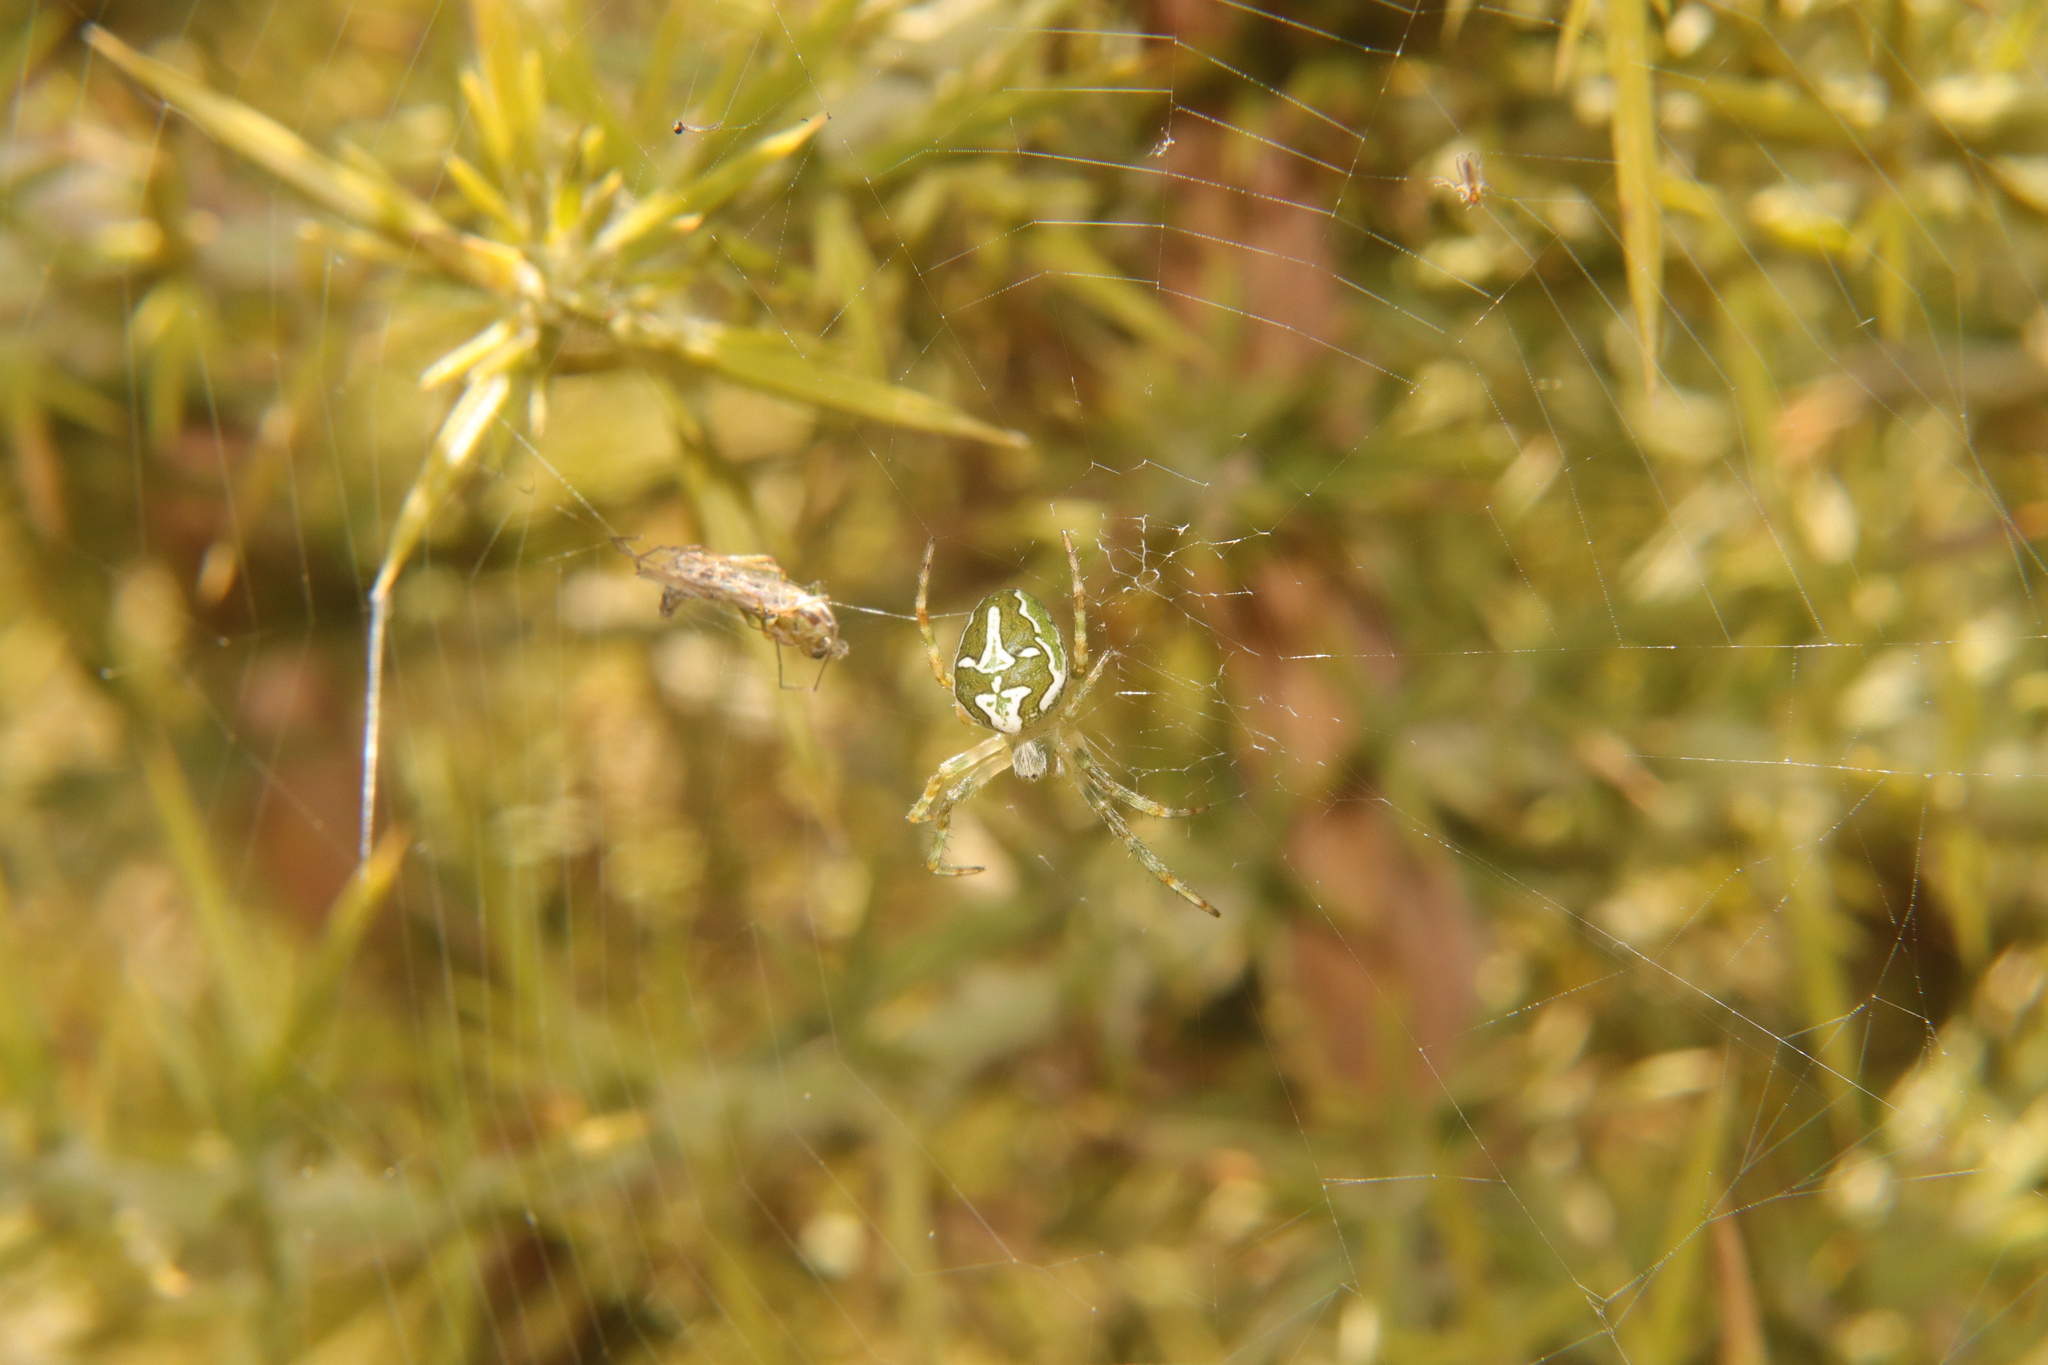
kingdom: Animalia
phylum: Arthropoda
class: Arachnida
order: Araneae
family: Araneidae
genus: Colaranea
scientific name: Colaranea verutum
